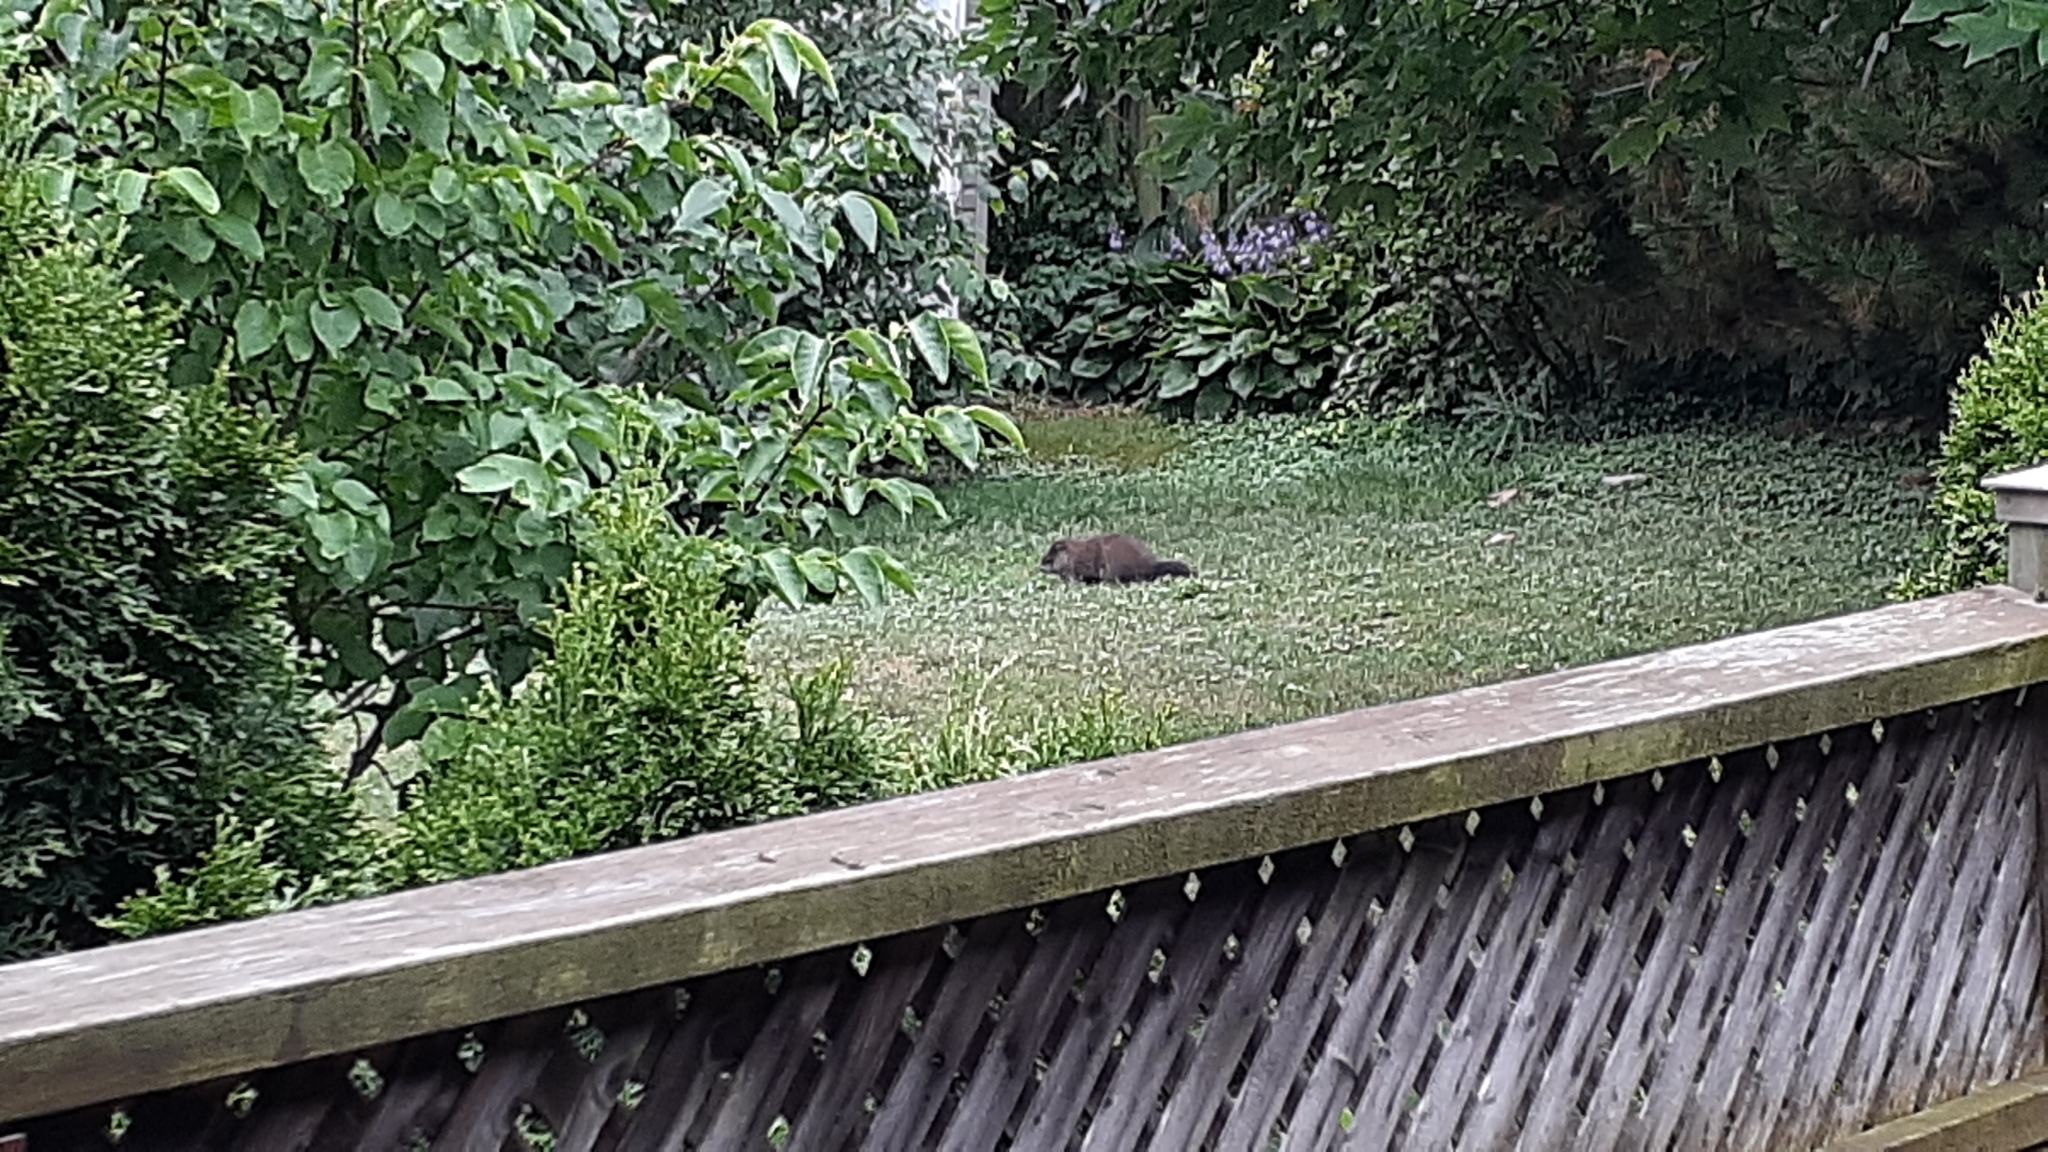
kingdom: Animalia
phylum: Chordata
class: Mammalia
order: Rodentia
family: Sciuridae
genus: Marmota
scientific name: Marmota monax
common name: Groundhog
